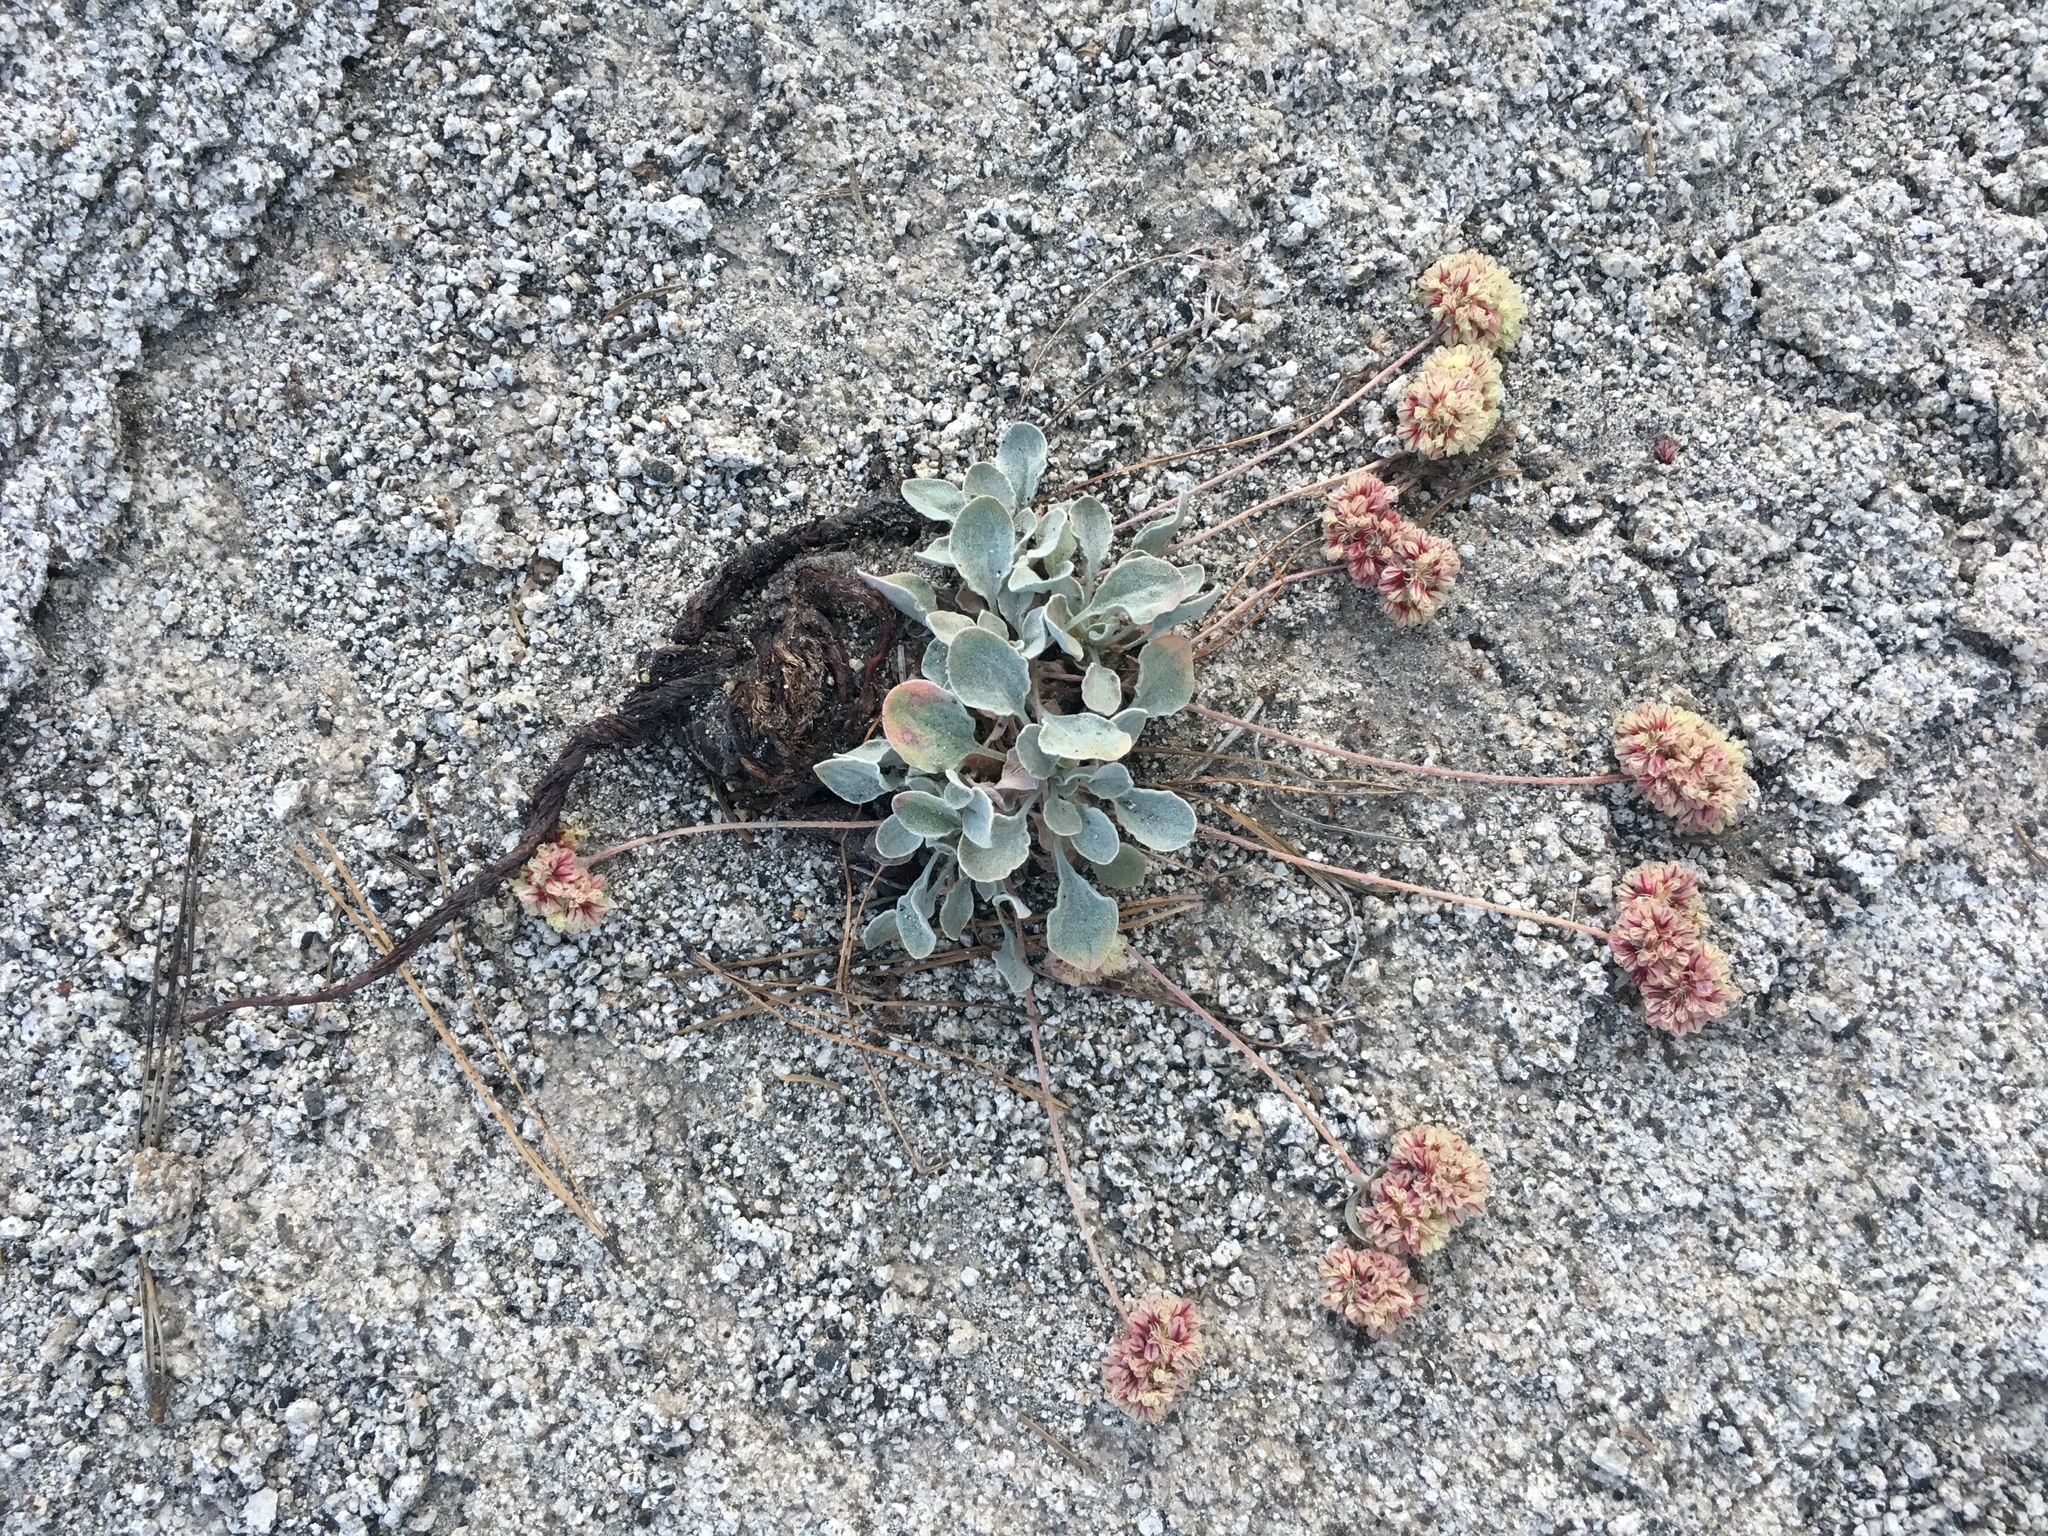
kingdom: Plantae
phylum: Tracheophyta
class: Magnoliopsida
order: Caryophyllales
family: Polygonaceae
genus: Eriogonum
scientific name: Eriogonum lobbii
